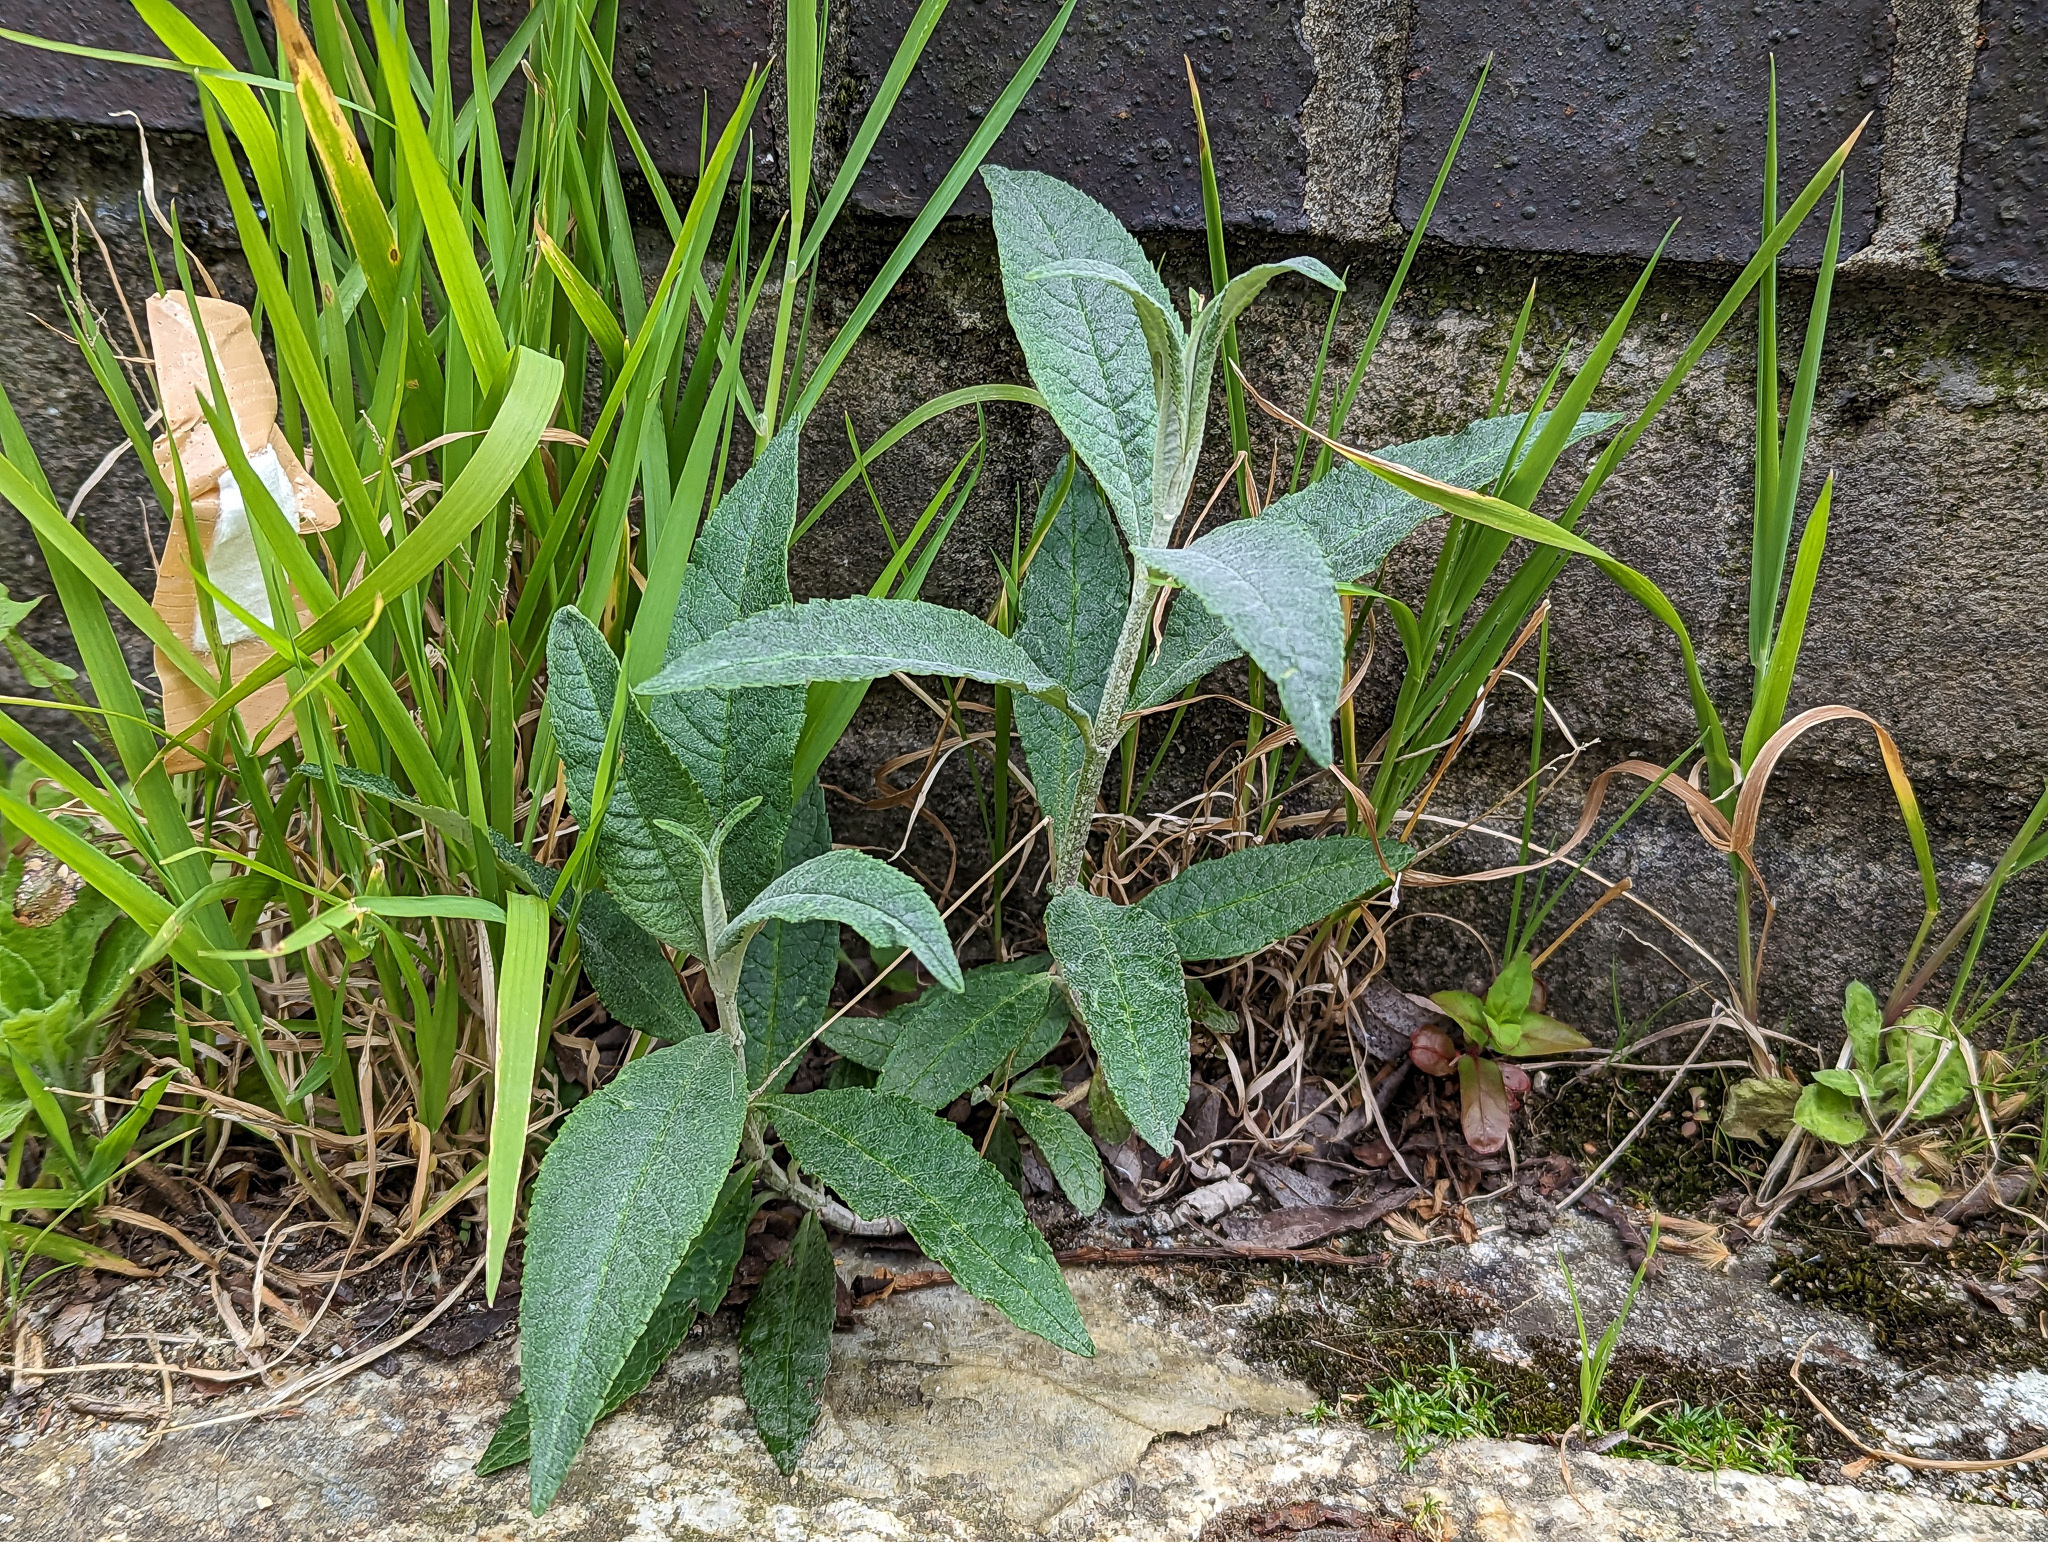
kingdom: Plantae
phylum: Tracheophyta
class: Magnoliopsida
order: Lamiales
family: Scrophulariaceae
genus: Buddleja
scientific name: Buddleja davidii
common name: Butterfly-bush
